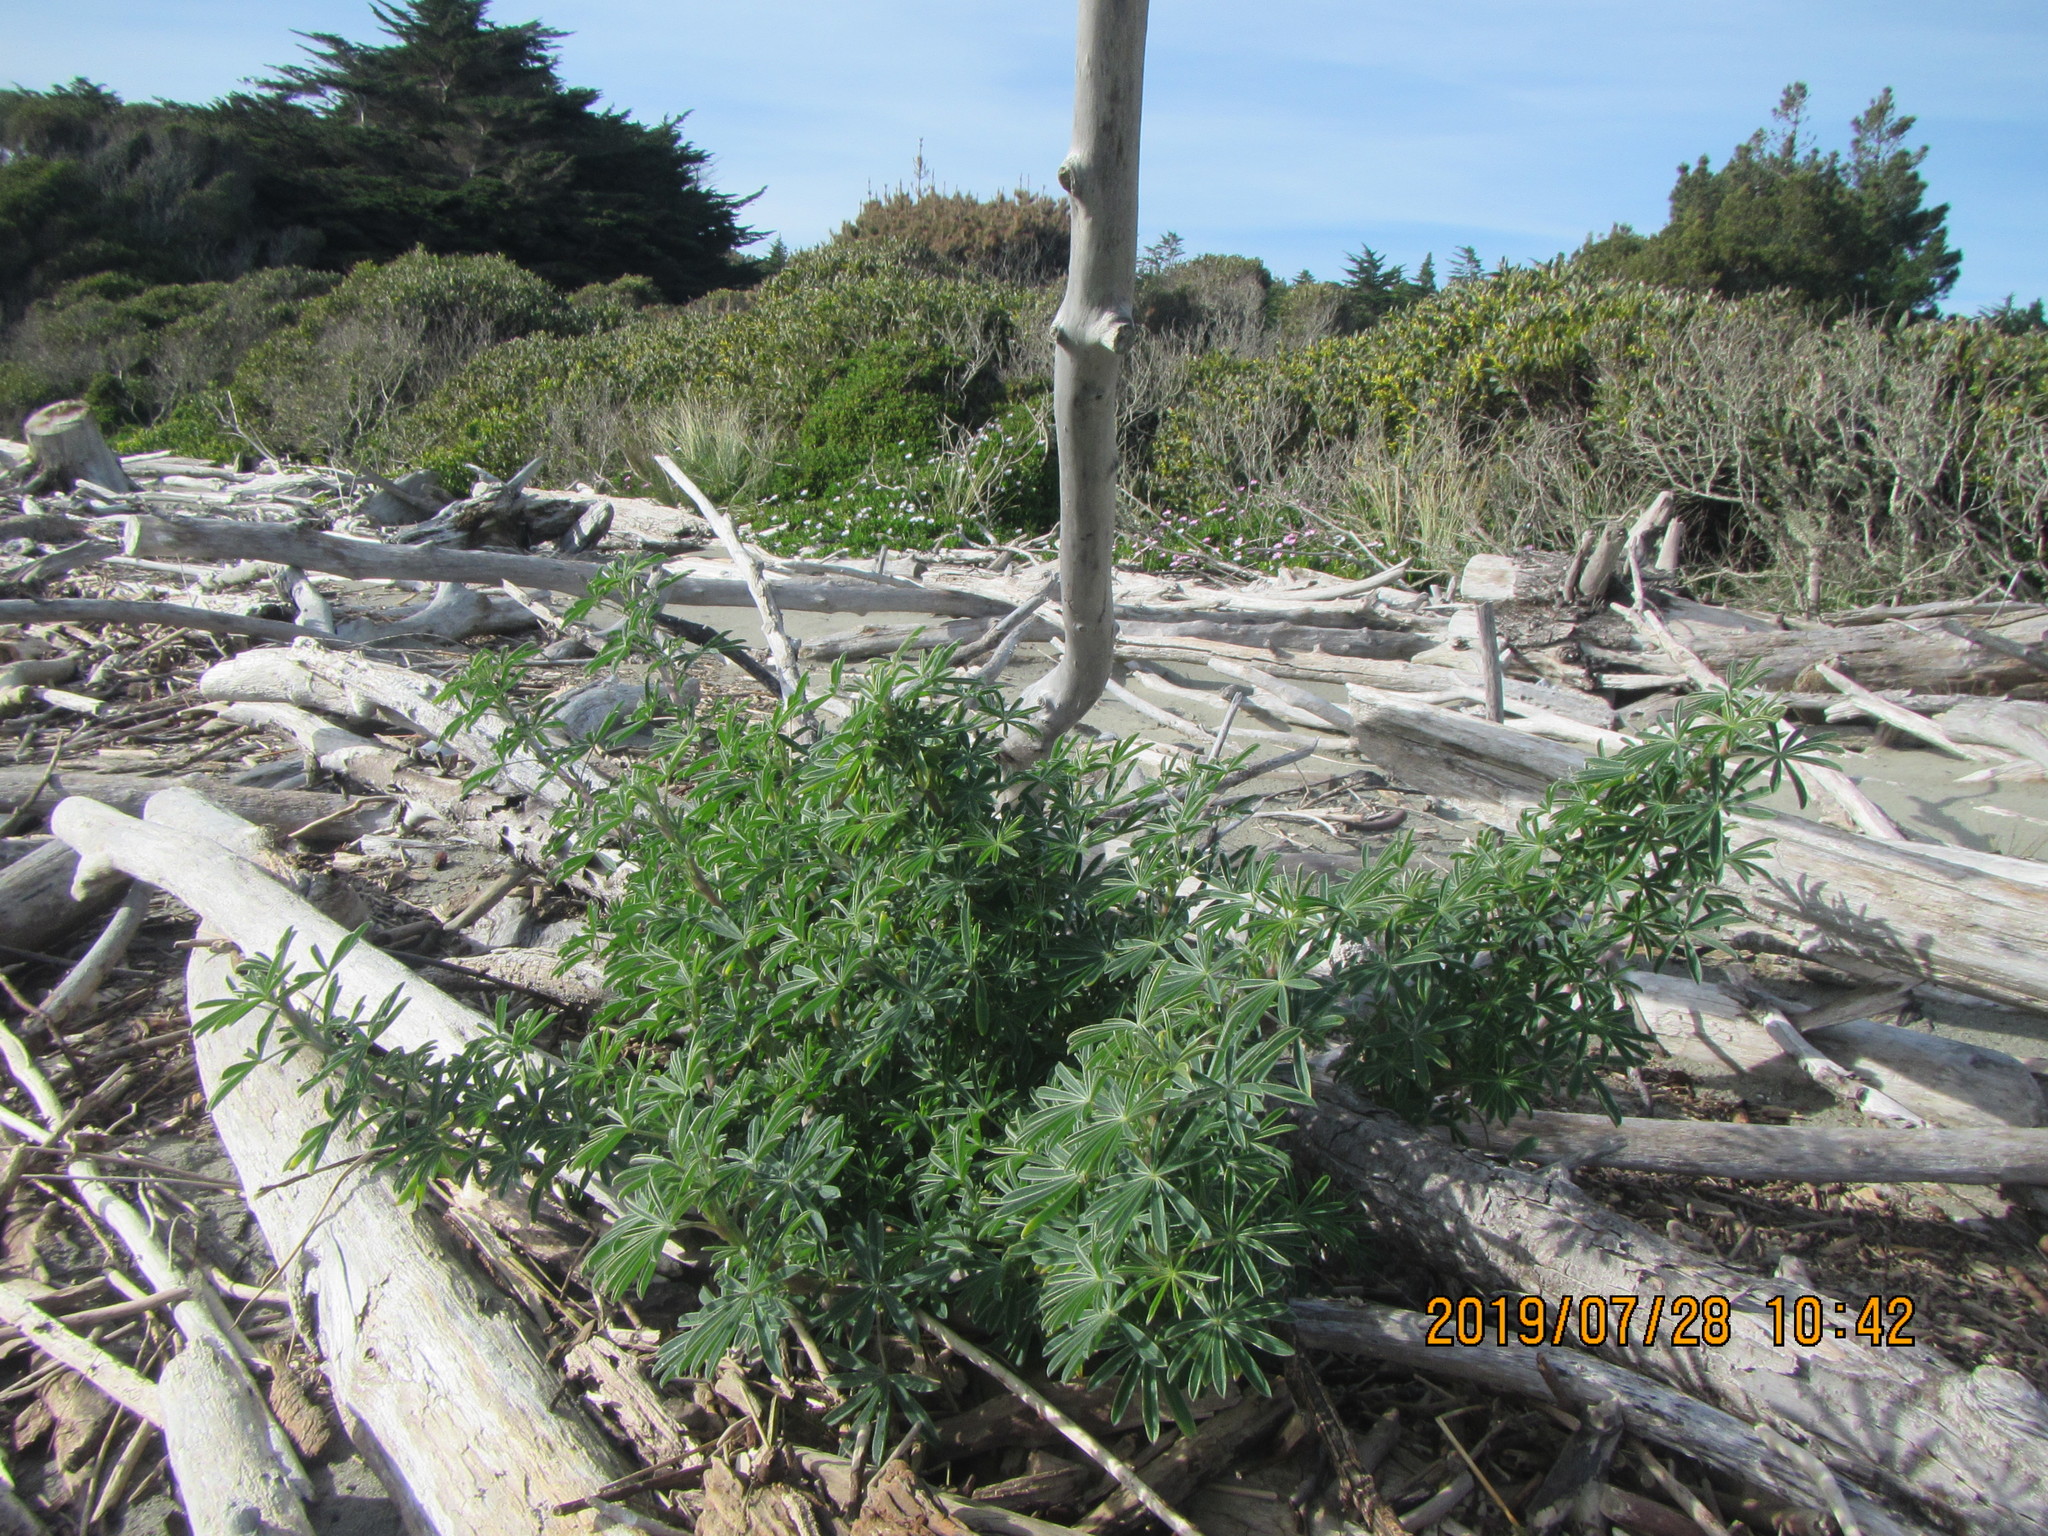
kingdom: Plantae
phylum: Tracheophyta
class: Magnoliopsida
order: Fabales
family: Fabaceae
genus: Lupinus
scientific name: Lupinus arboreus
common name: Yellow bush lupine
